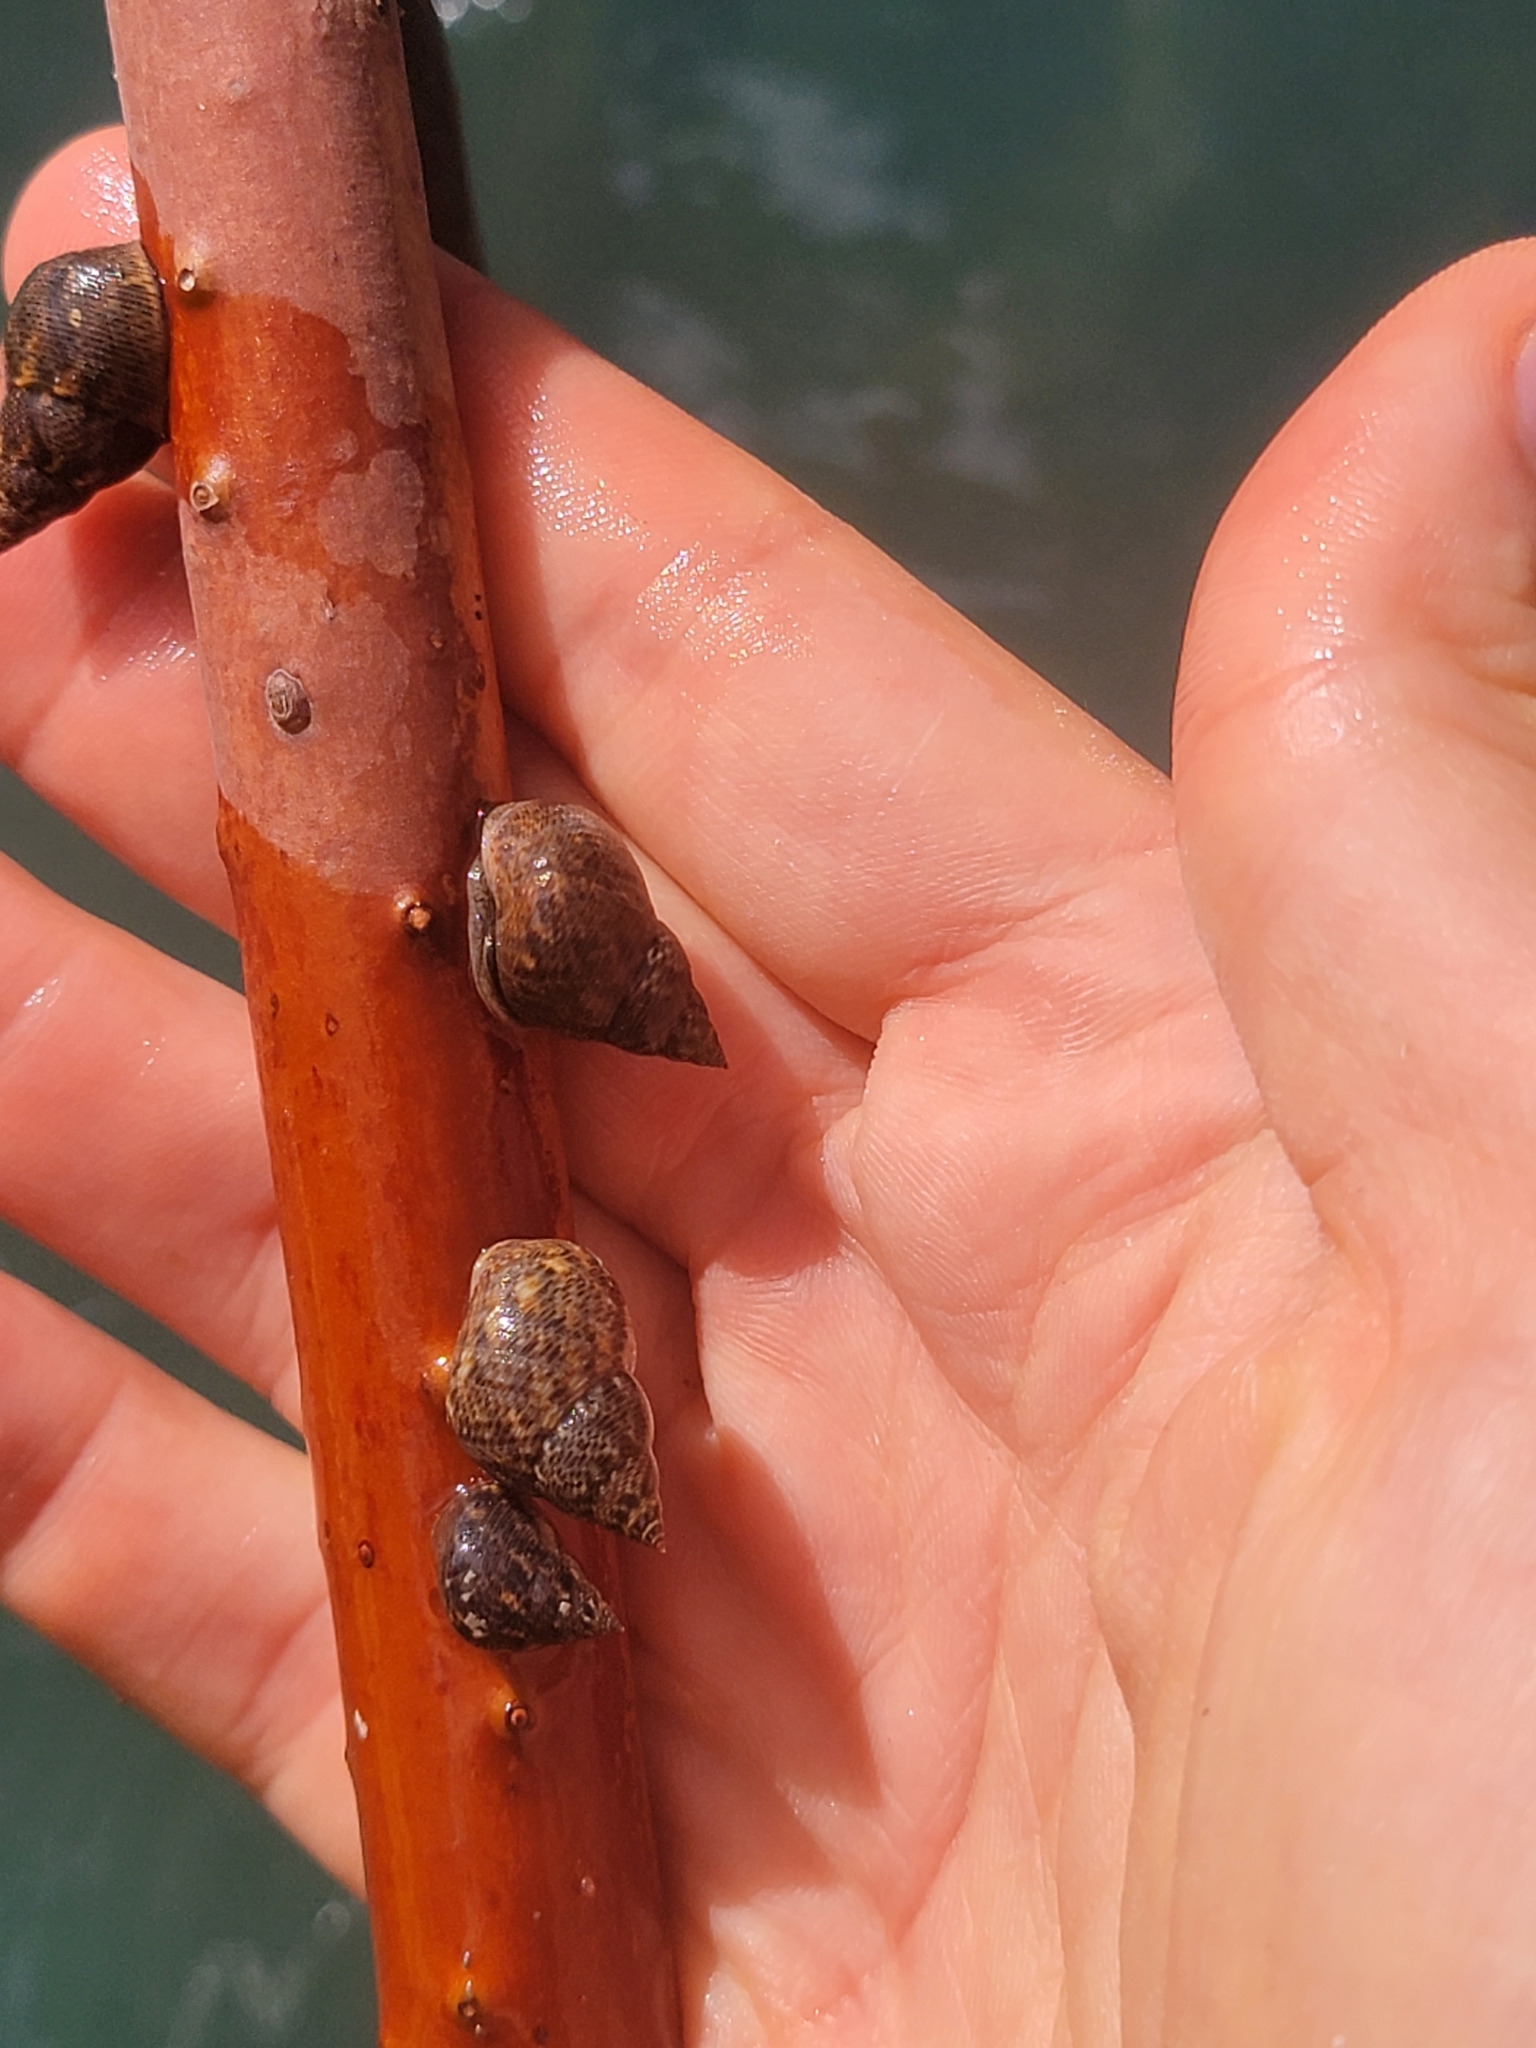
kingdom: Animalia
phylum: Mollusca
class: Gastropoda
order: Littorinimorpha
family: Littorinidae
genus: Littoraria
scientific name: Littoraria angulifera
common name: Mangrove periwinkle
